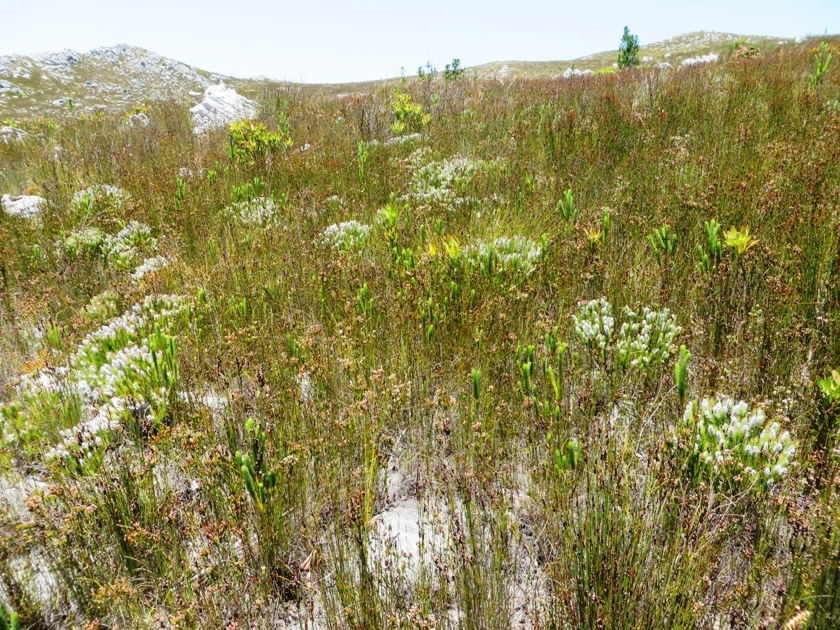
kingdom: Plantae
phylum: Tracheophyta
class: Magnoliopsida
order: Proteales
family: Proteaceae
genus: Spatalla
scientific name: Spatalla mollis
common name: Woolly spoon
